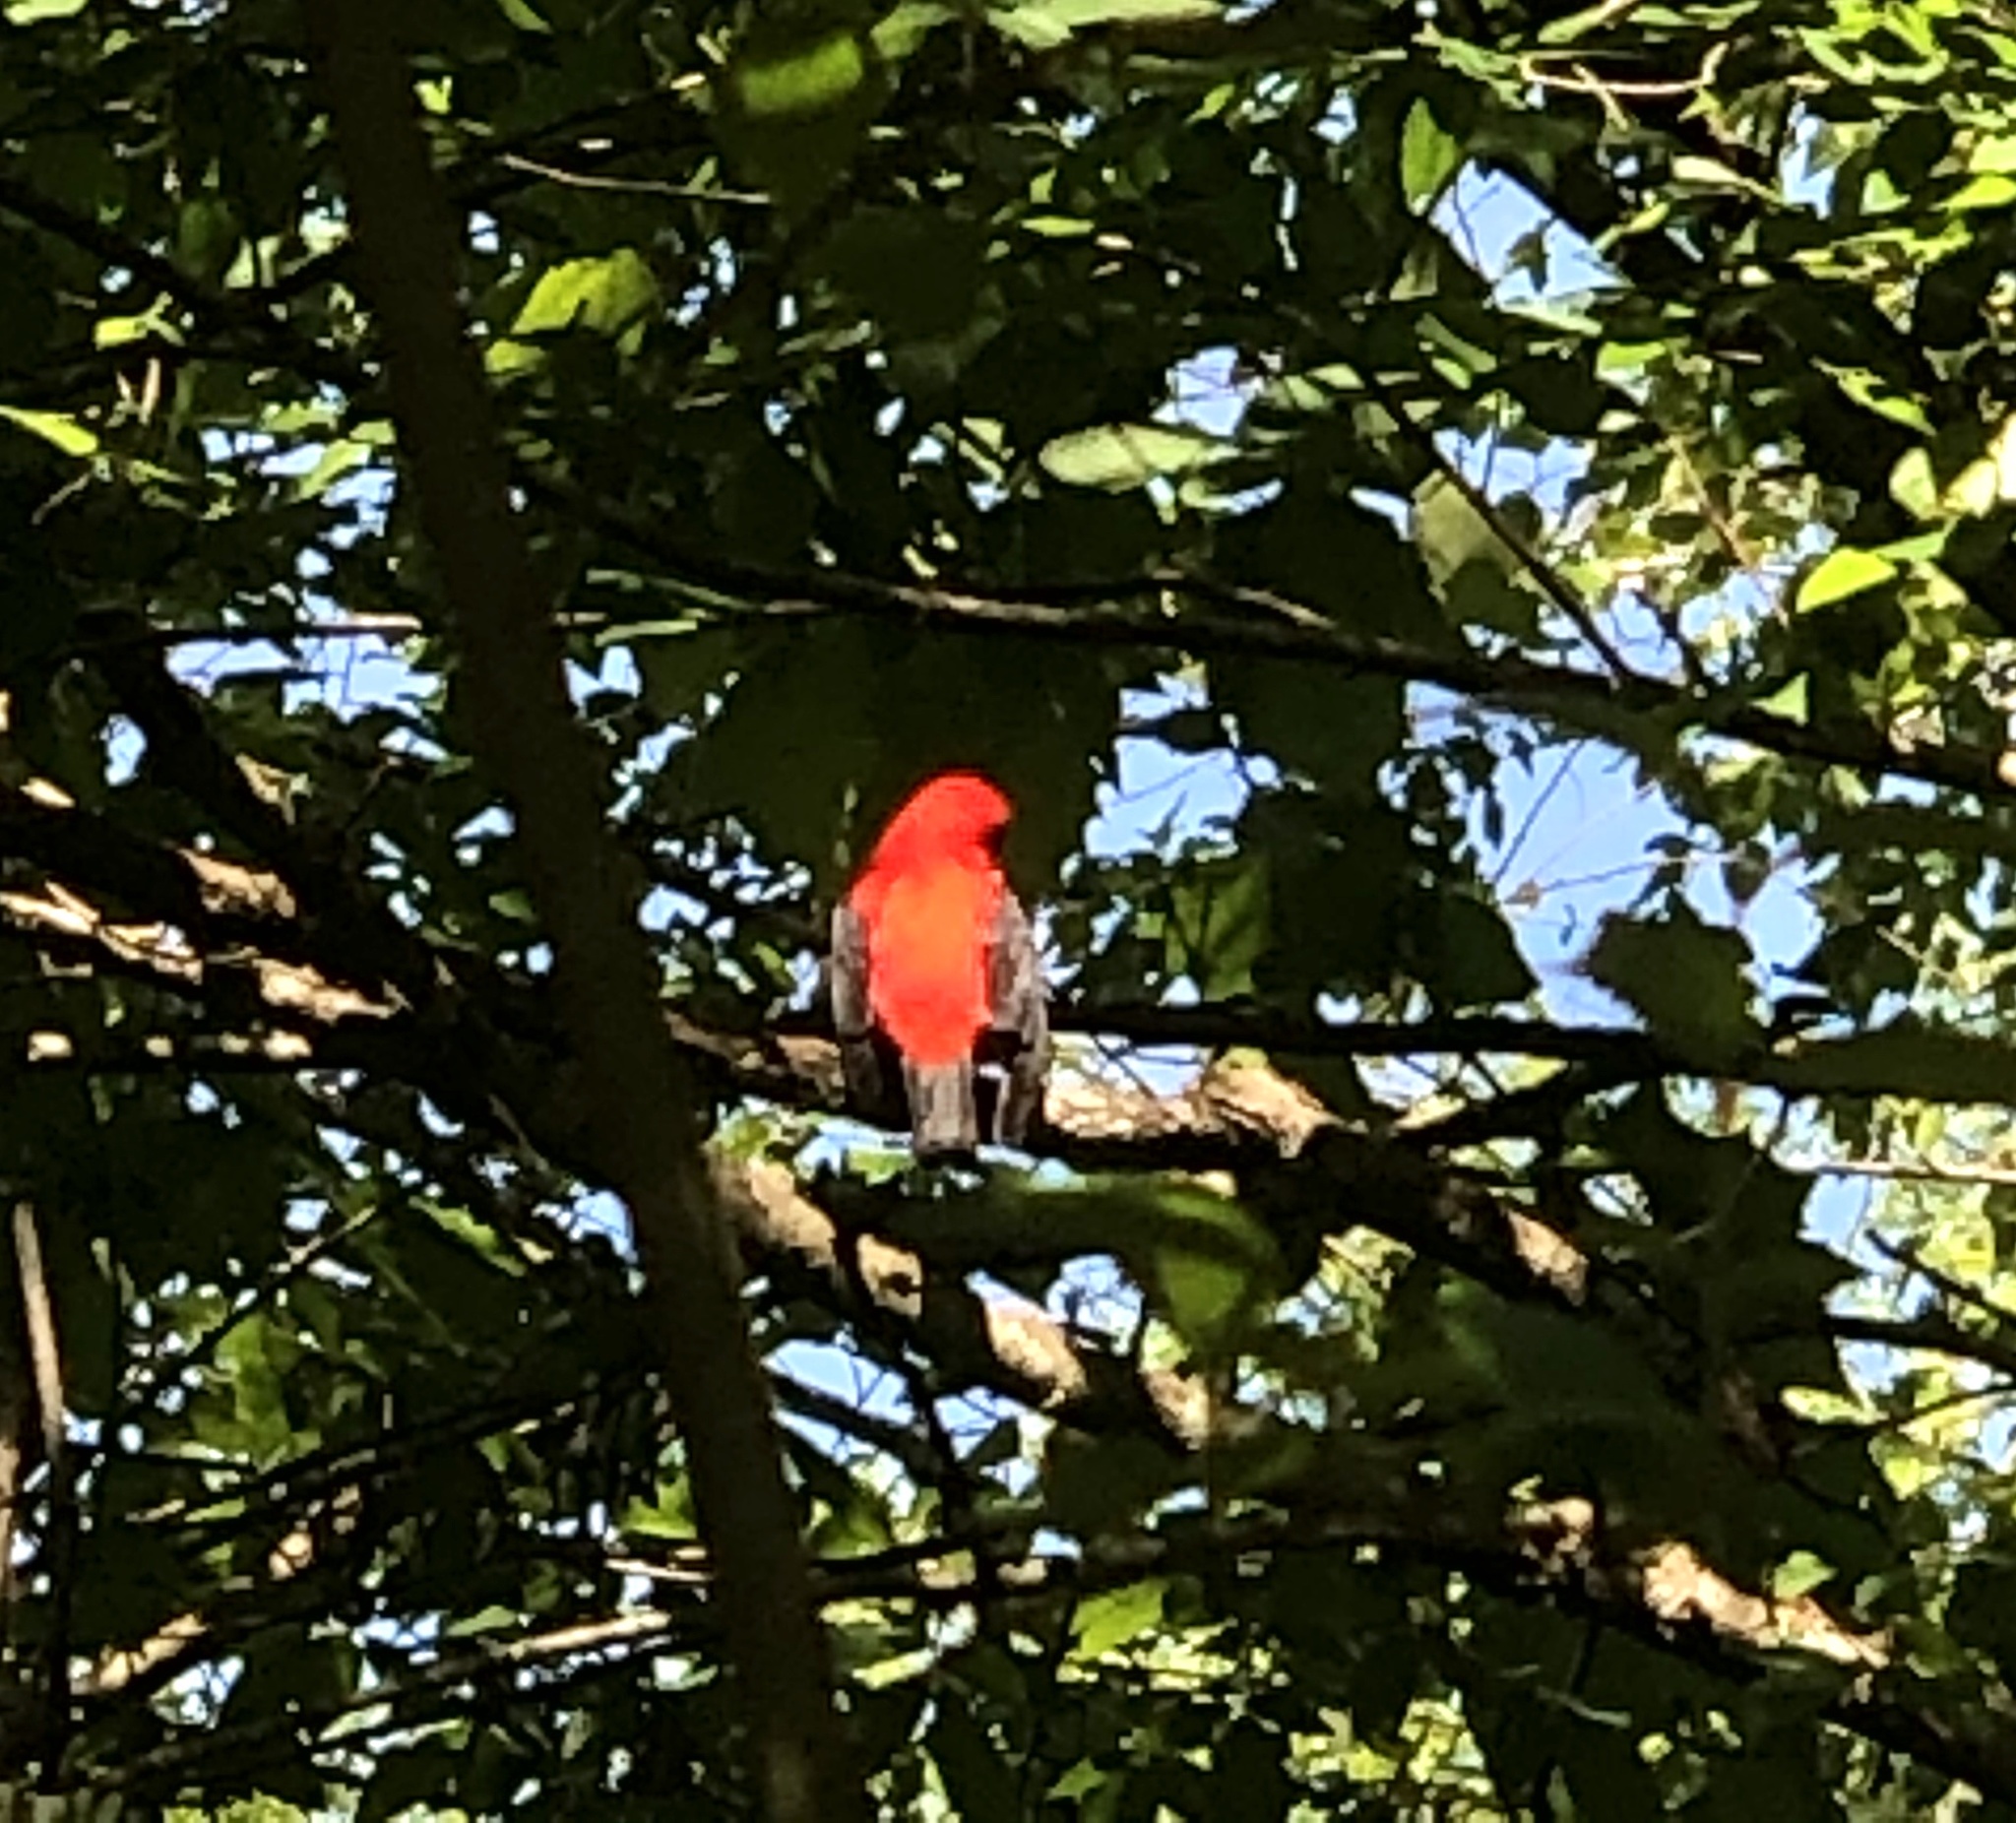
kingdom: Animalia
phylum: Chordata
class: Aves
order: Passeriformes
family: Cardinalidae
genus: Piranga
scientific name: Piranga olivacea
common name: Scarlet tanager
